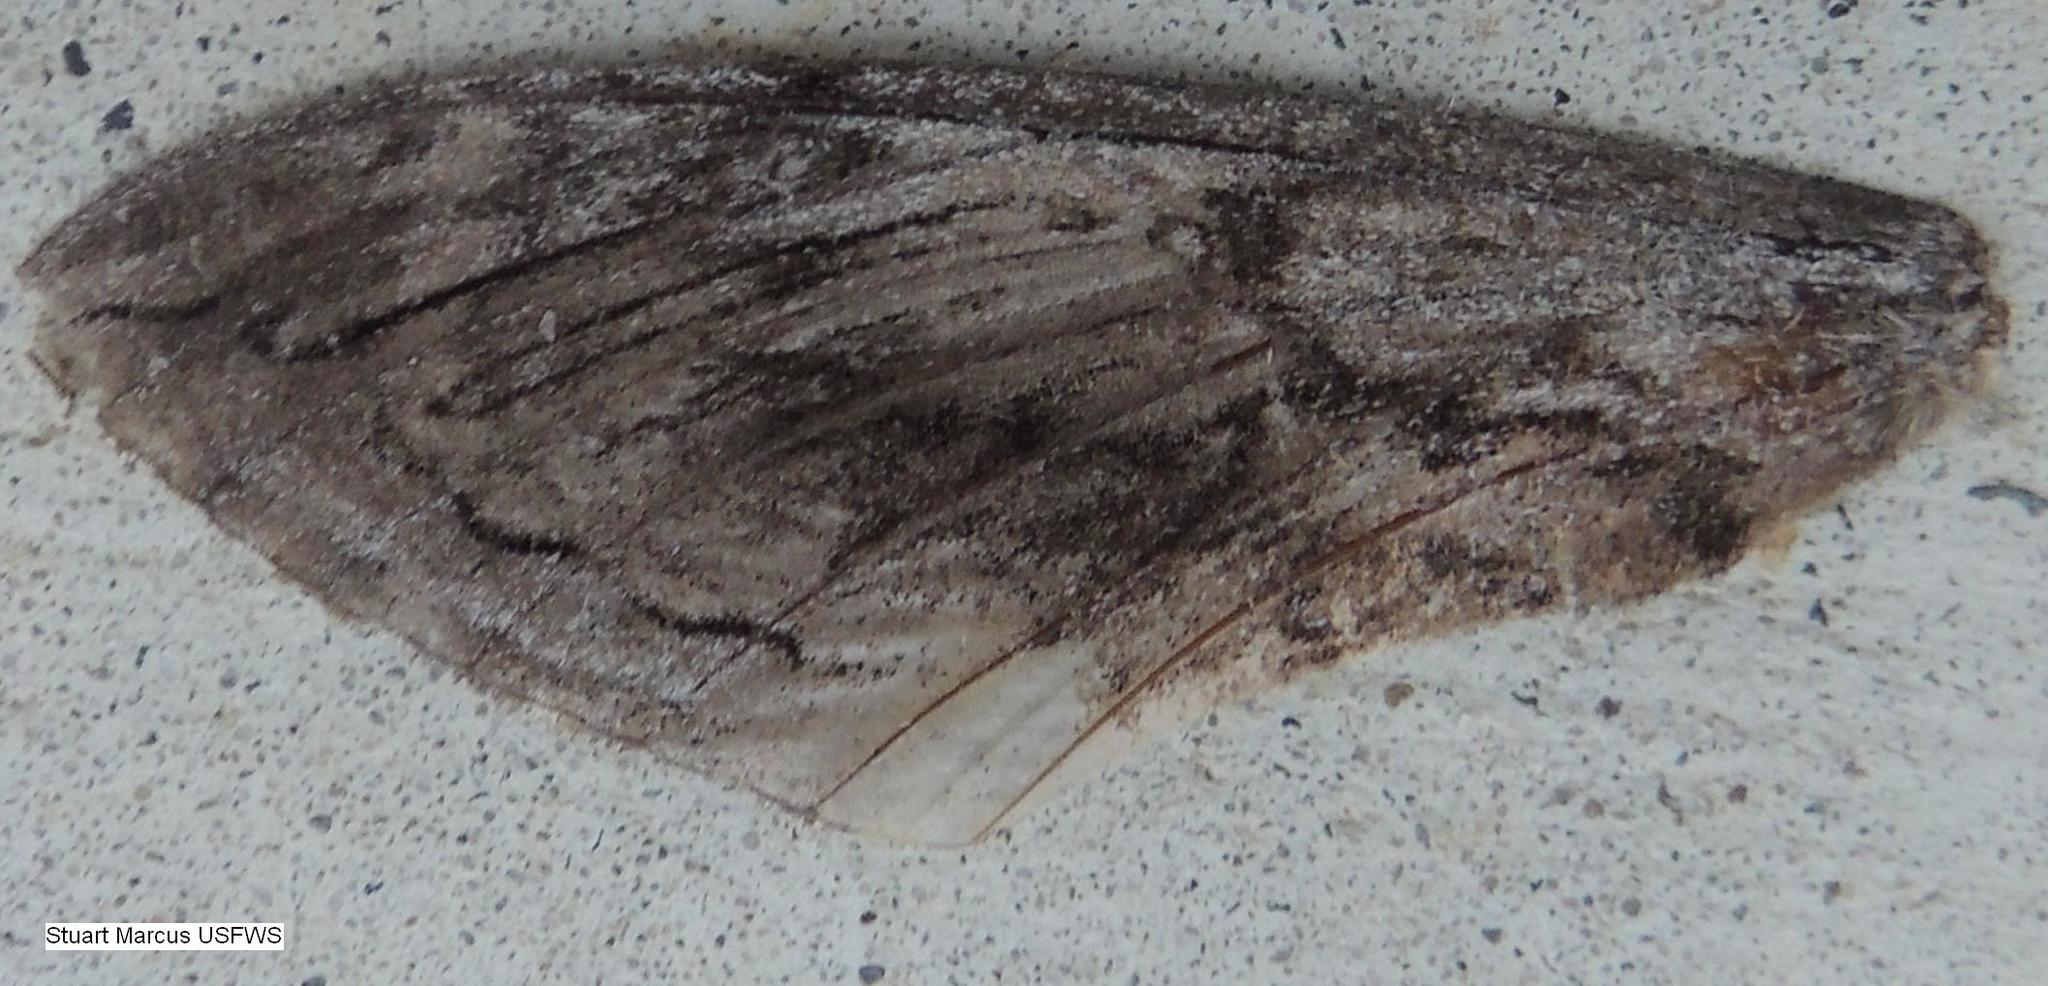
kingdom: Animalia
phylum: Arthropoda
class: Insecta
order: Lepidoptera
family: Sphingidae
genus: Manduca
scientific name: Manduca quinquemaculatus
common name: Five-spotted hawk-moth
